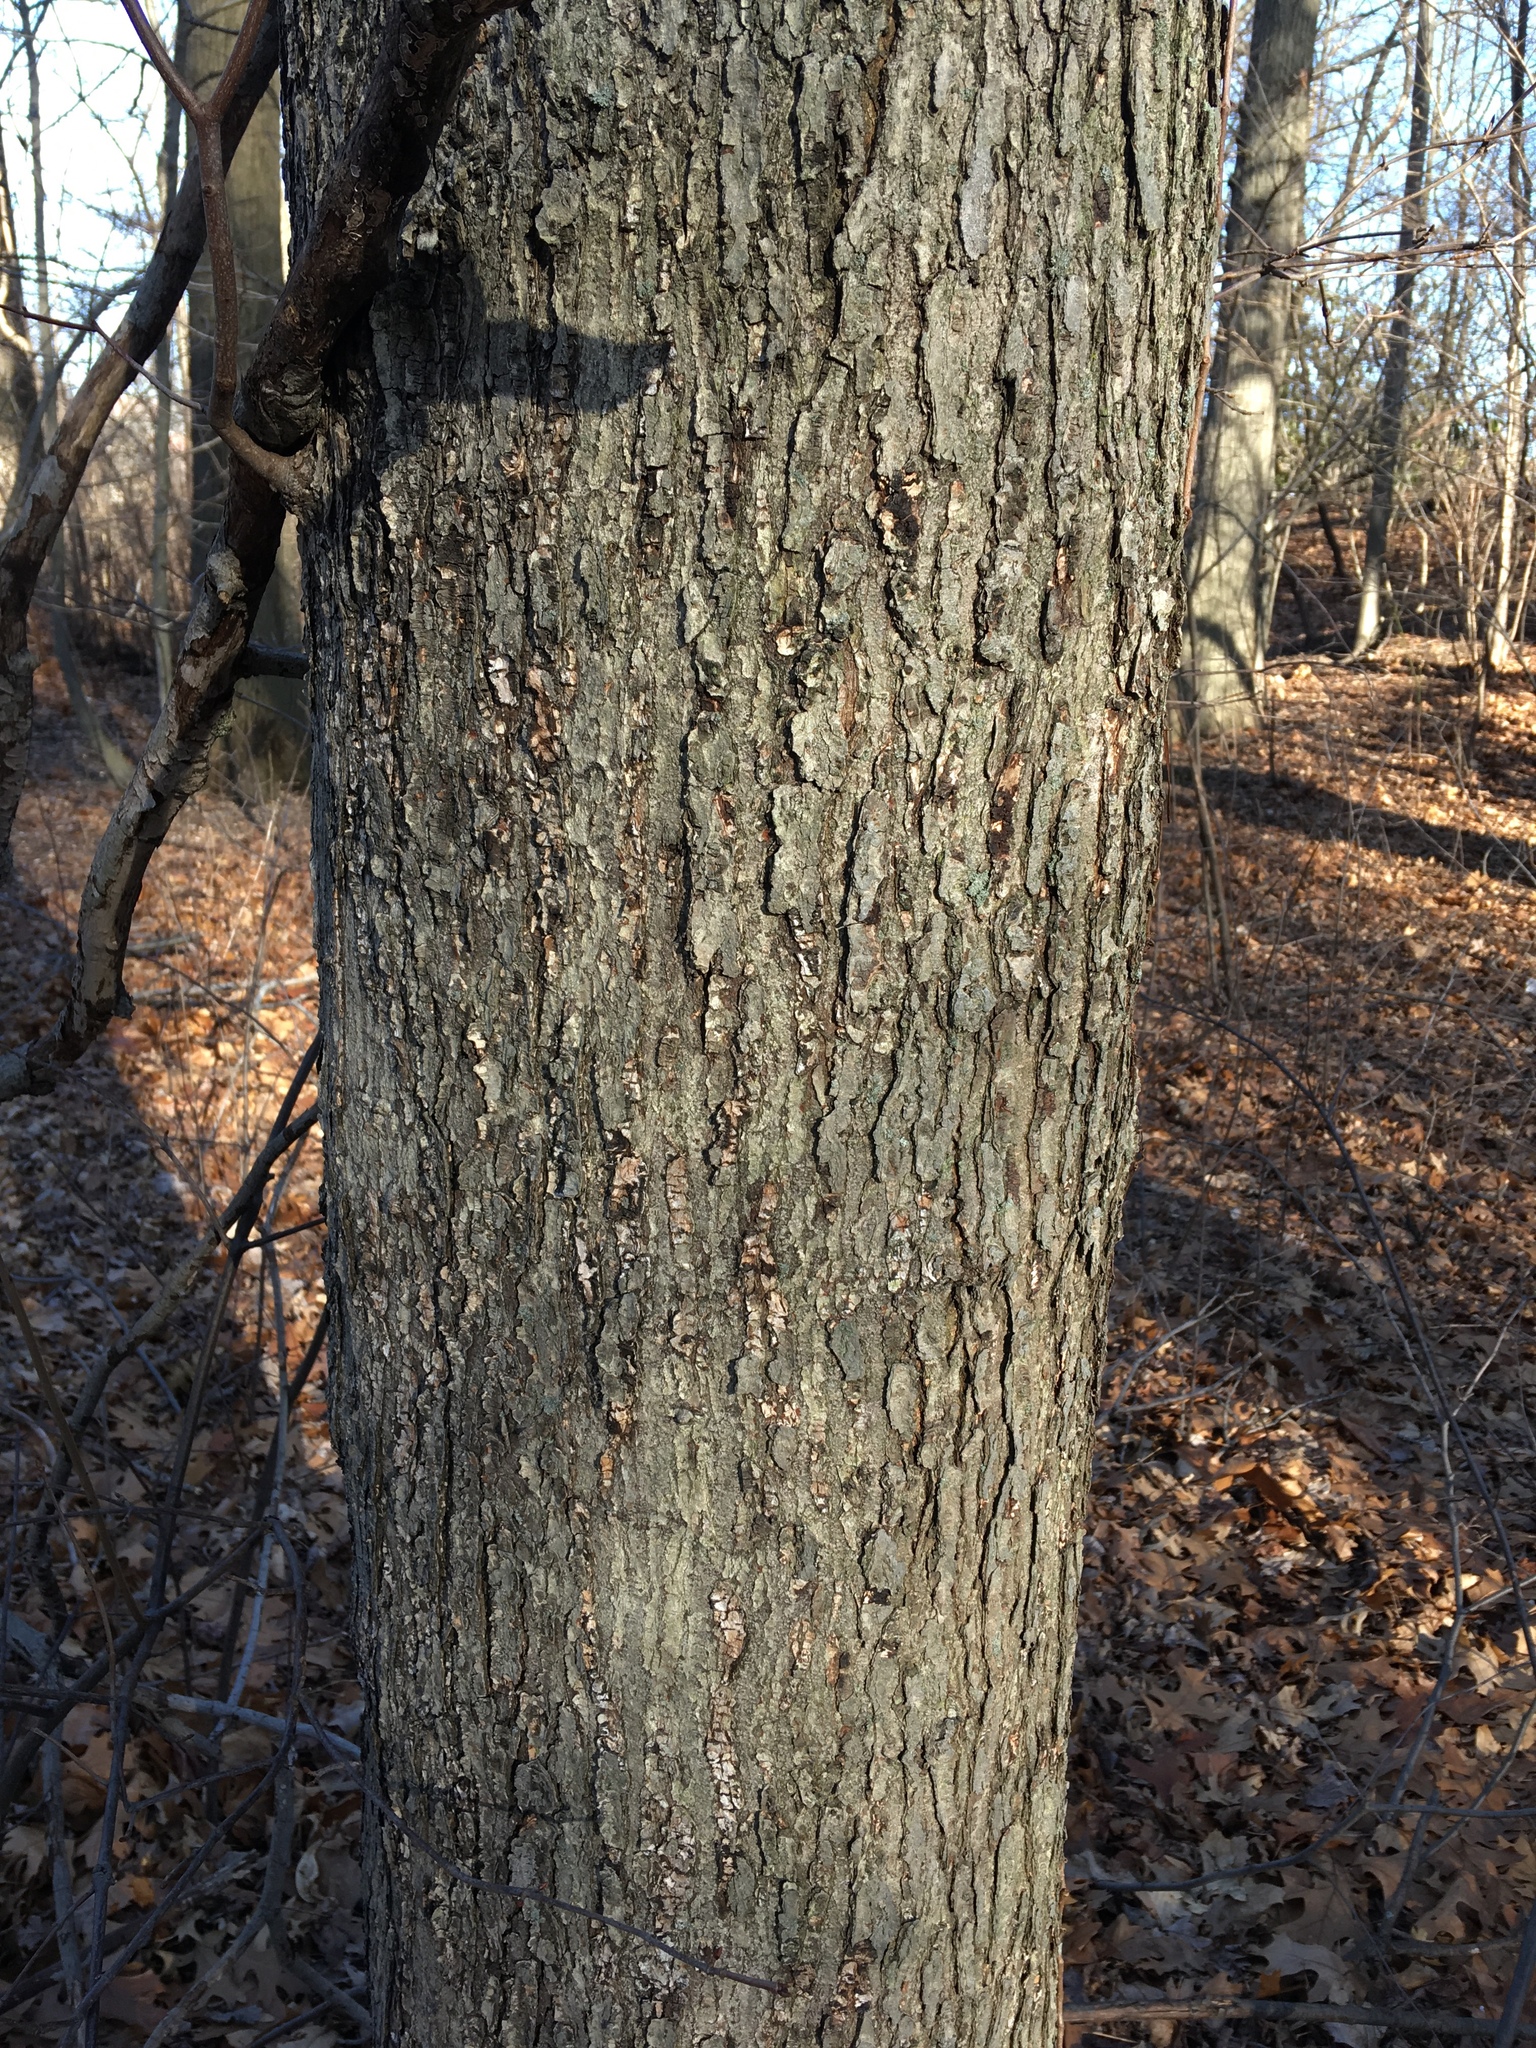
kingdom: Plantae
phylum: Tracheophyta
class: Magnoliopsida
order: Sapindales
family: Sapindaceae
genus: Acer
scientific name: Acer rubrum
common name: Red maple
